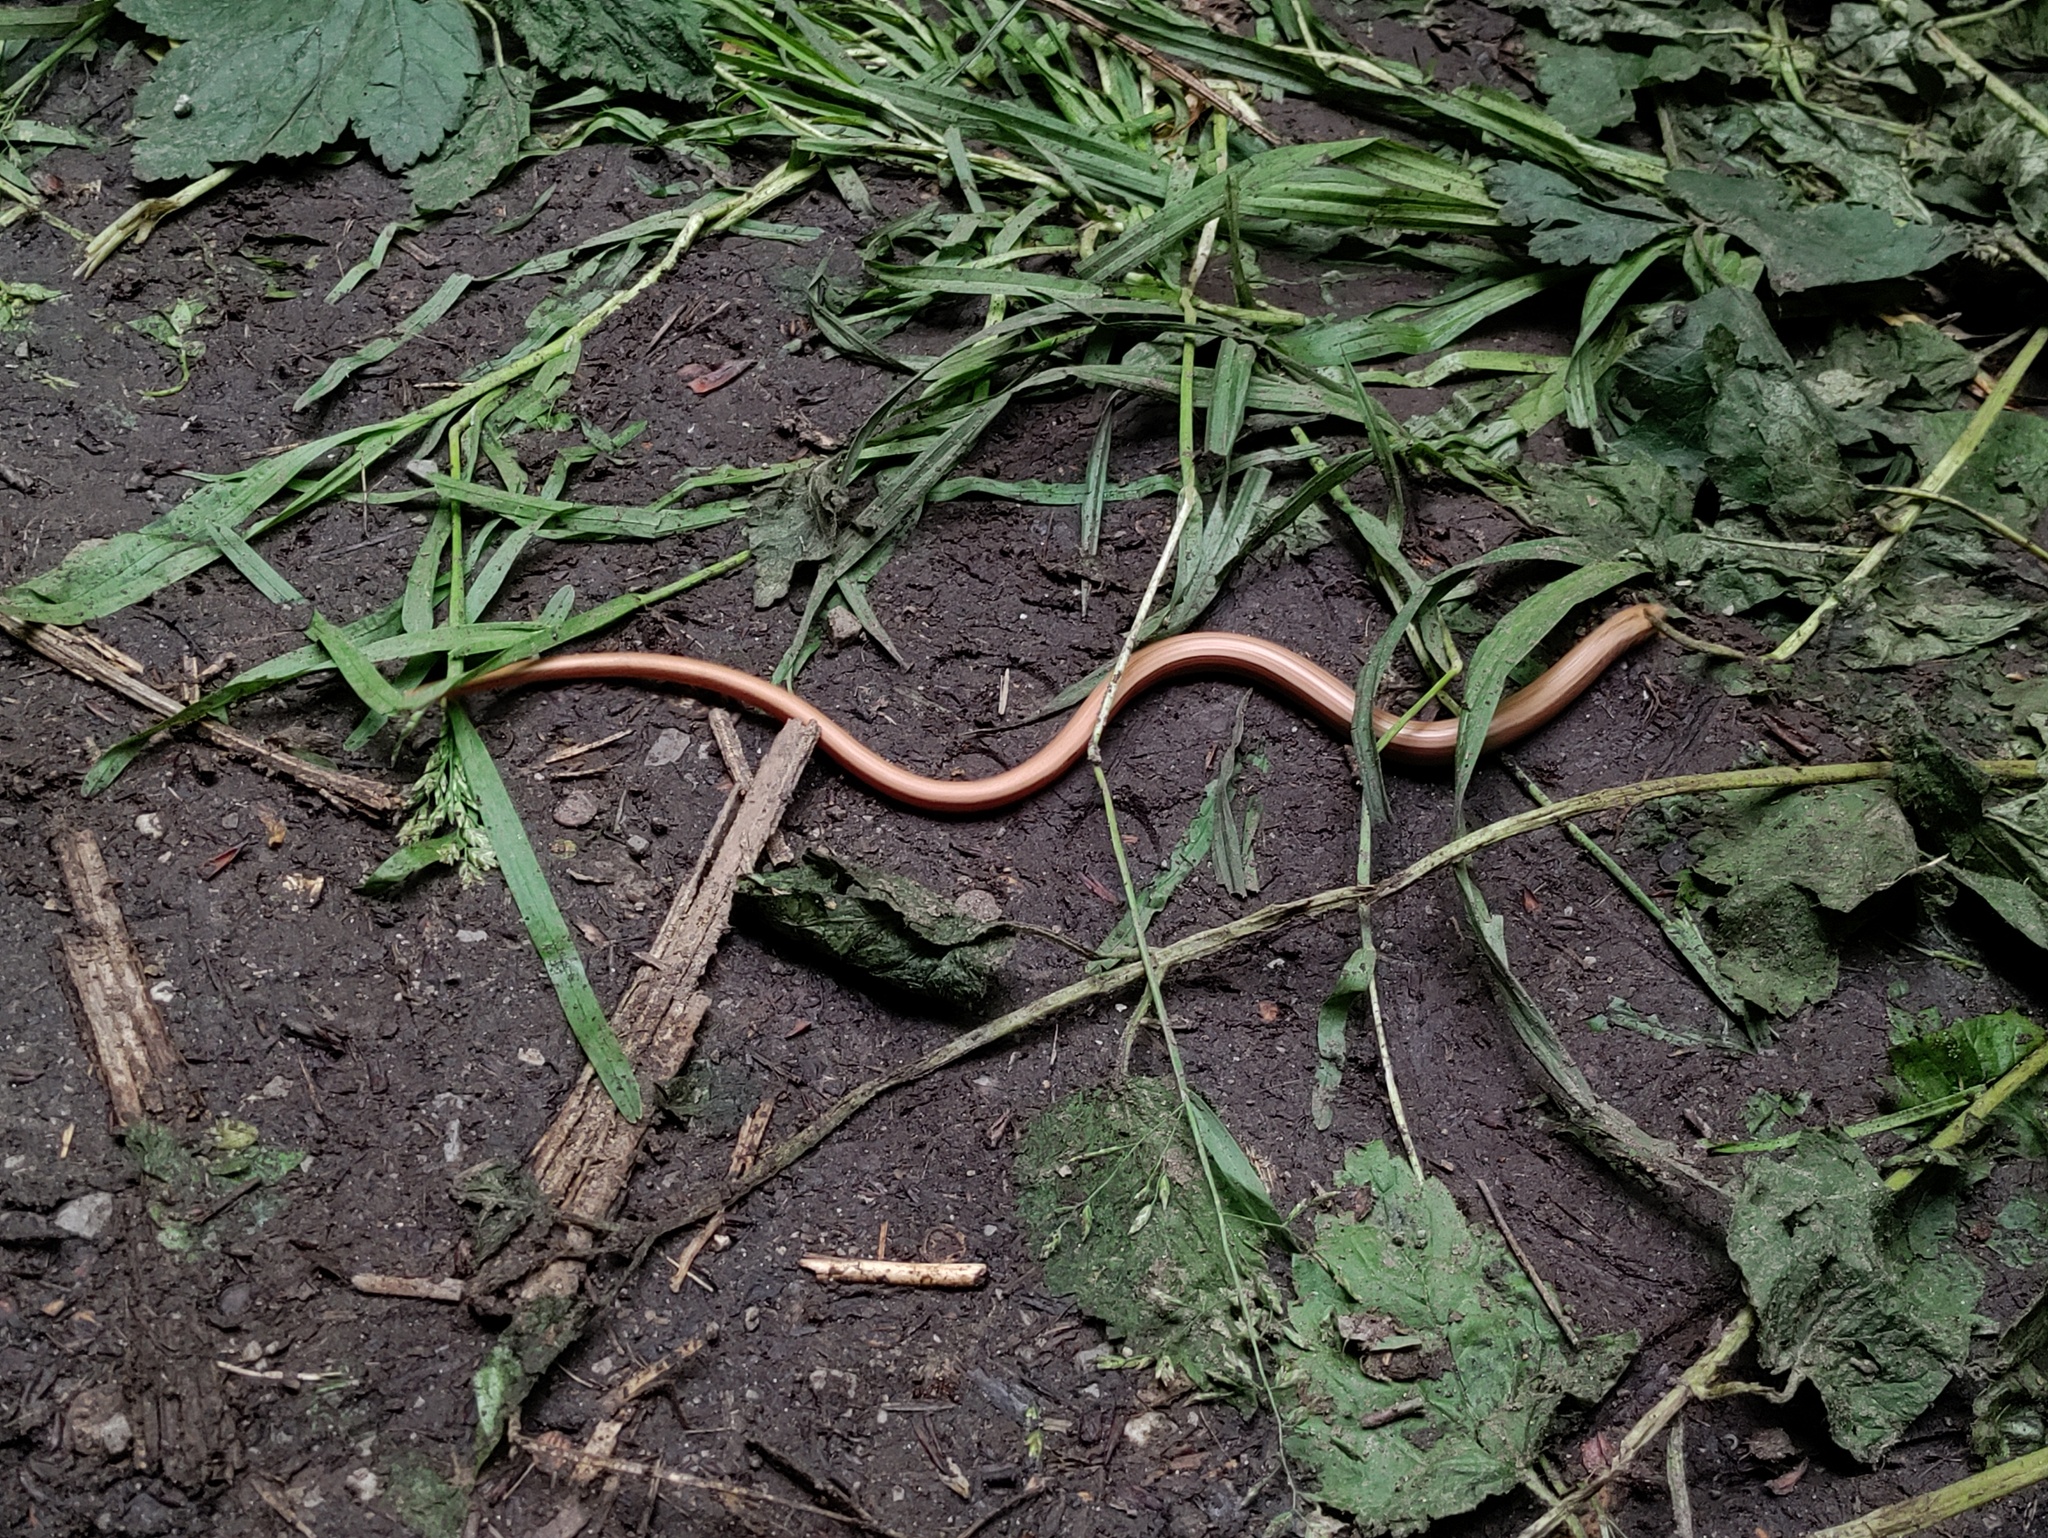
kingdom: Animalia
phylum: Chordata
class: Squamata
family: Anguidae
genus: Anguis
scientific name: Anguis fragilis
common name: Slow worm
